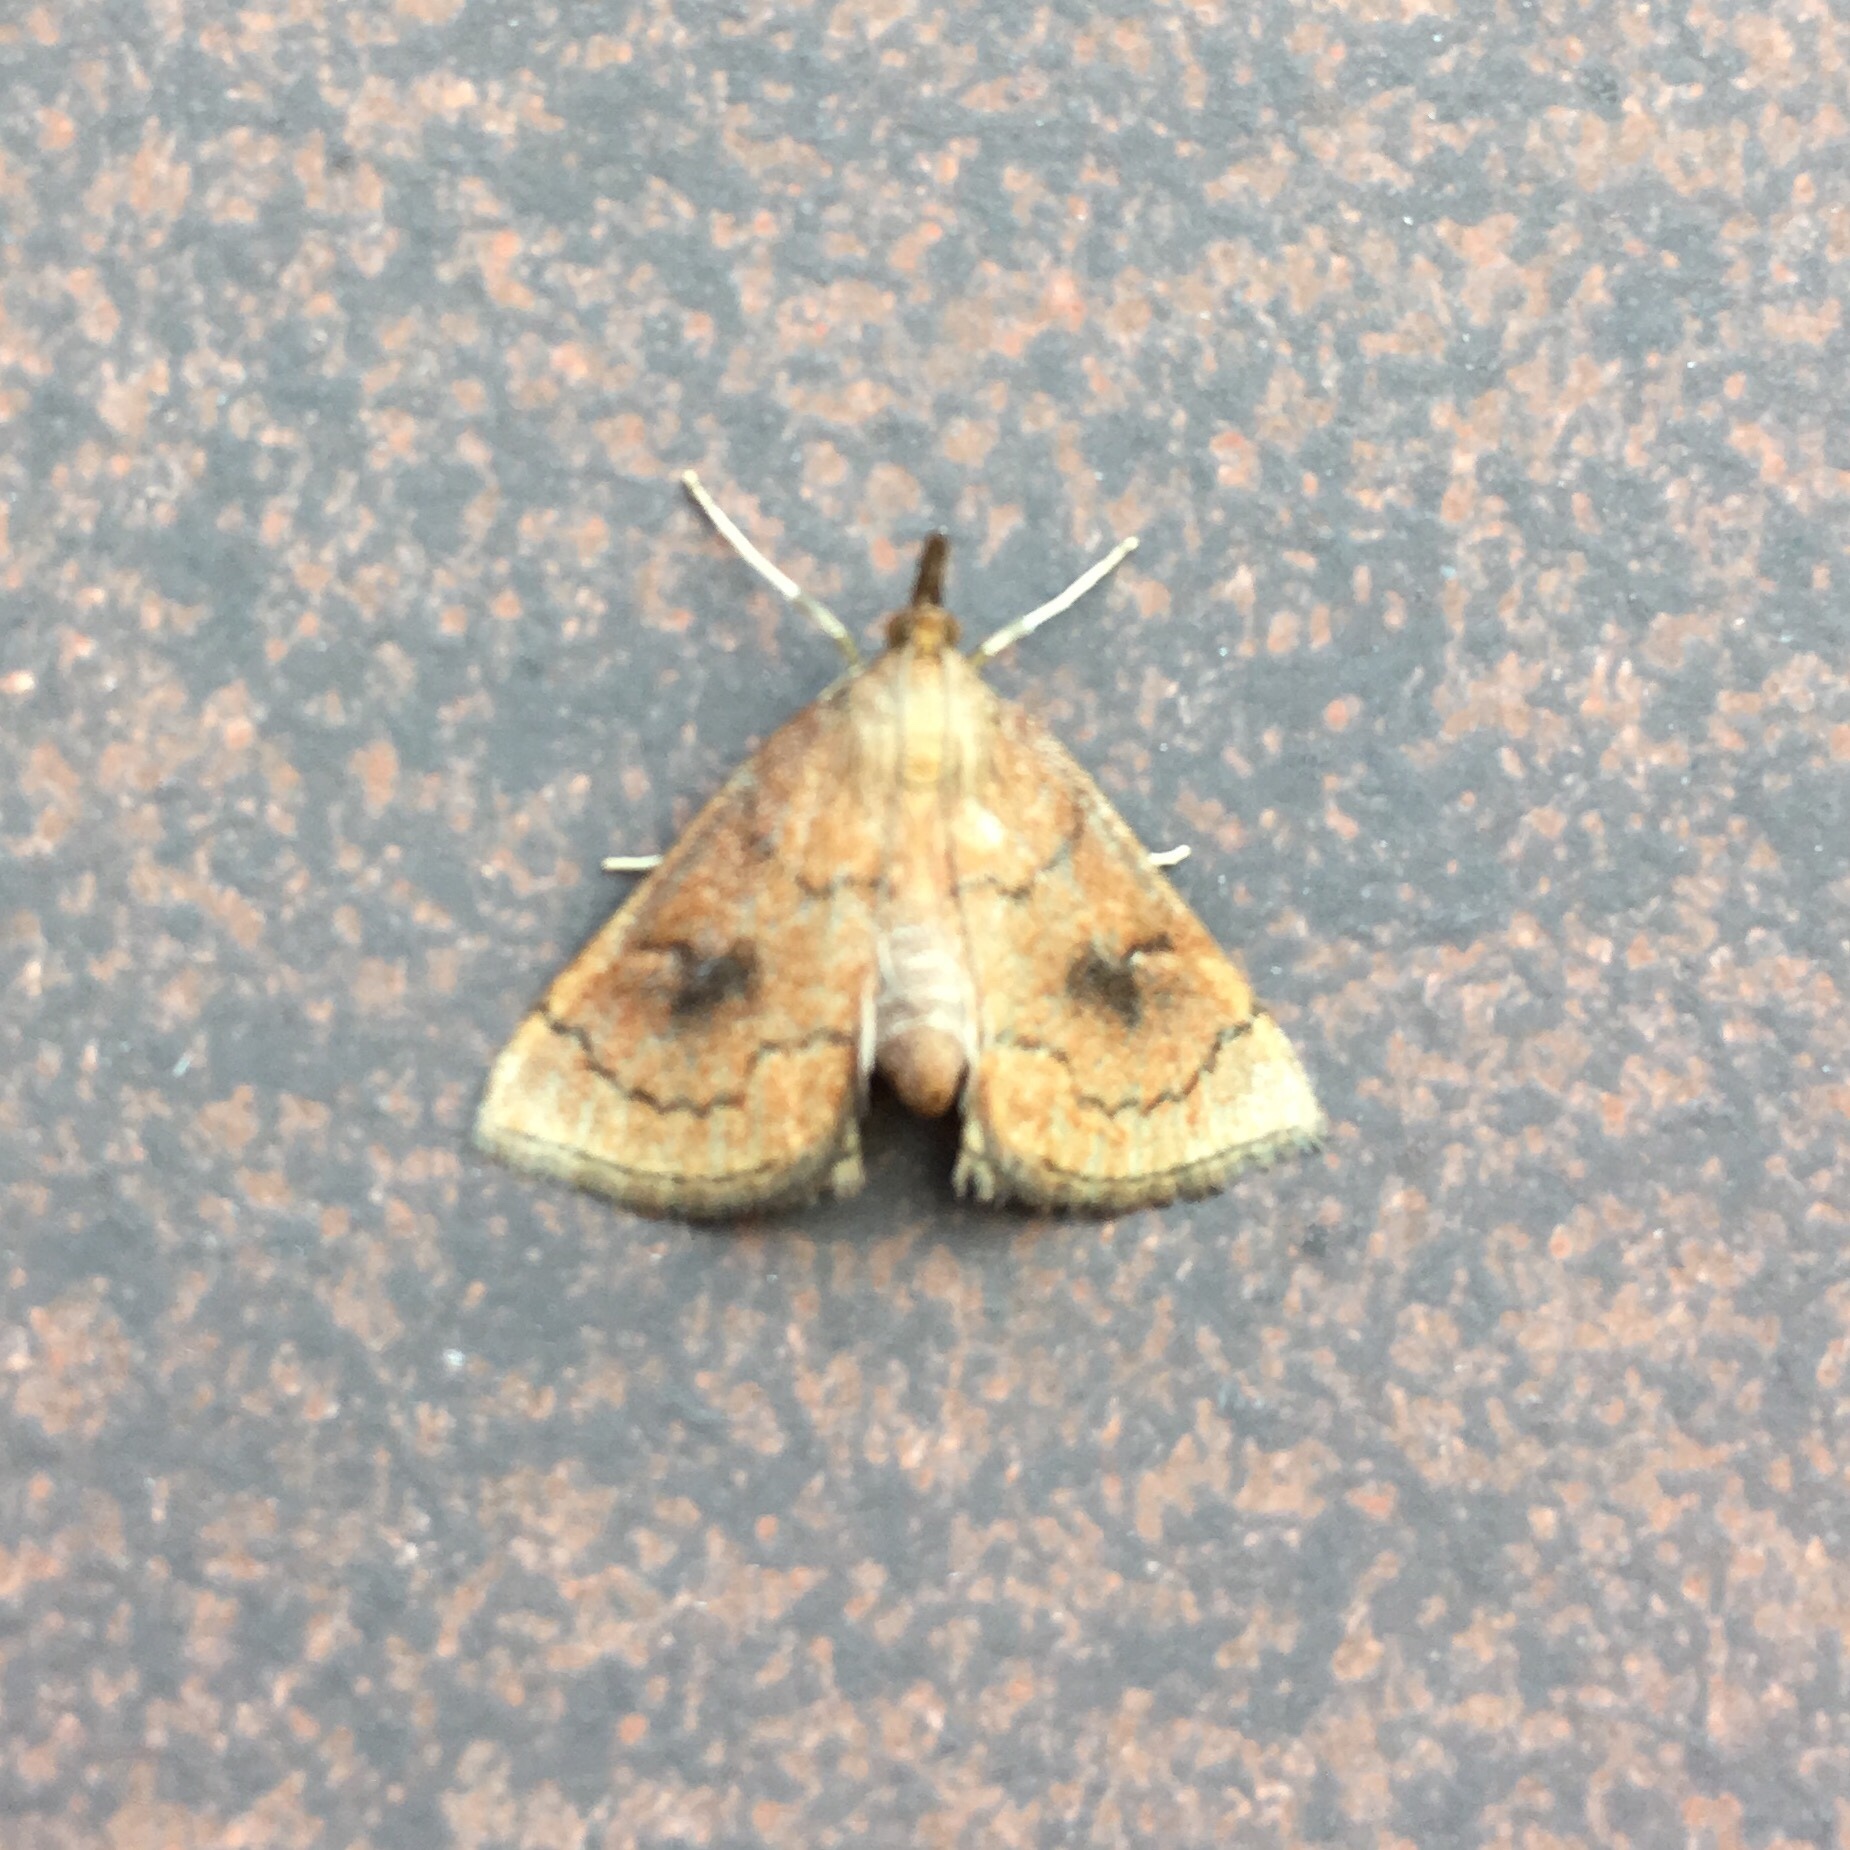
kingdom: Animalia
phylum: Arthropoda
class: Insecta
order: Lepidoptera
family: Crambidae
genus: Fumibotys
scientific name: Fumibotys fumalis
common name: Mint root borer moth
